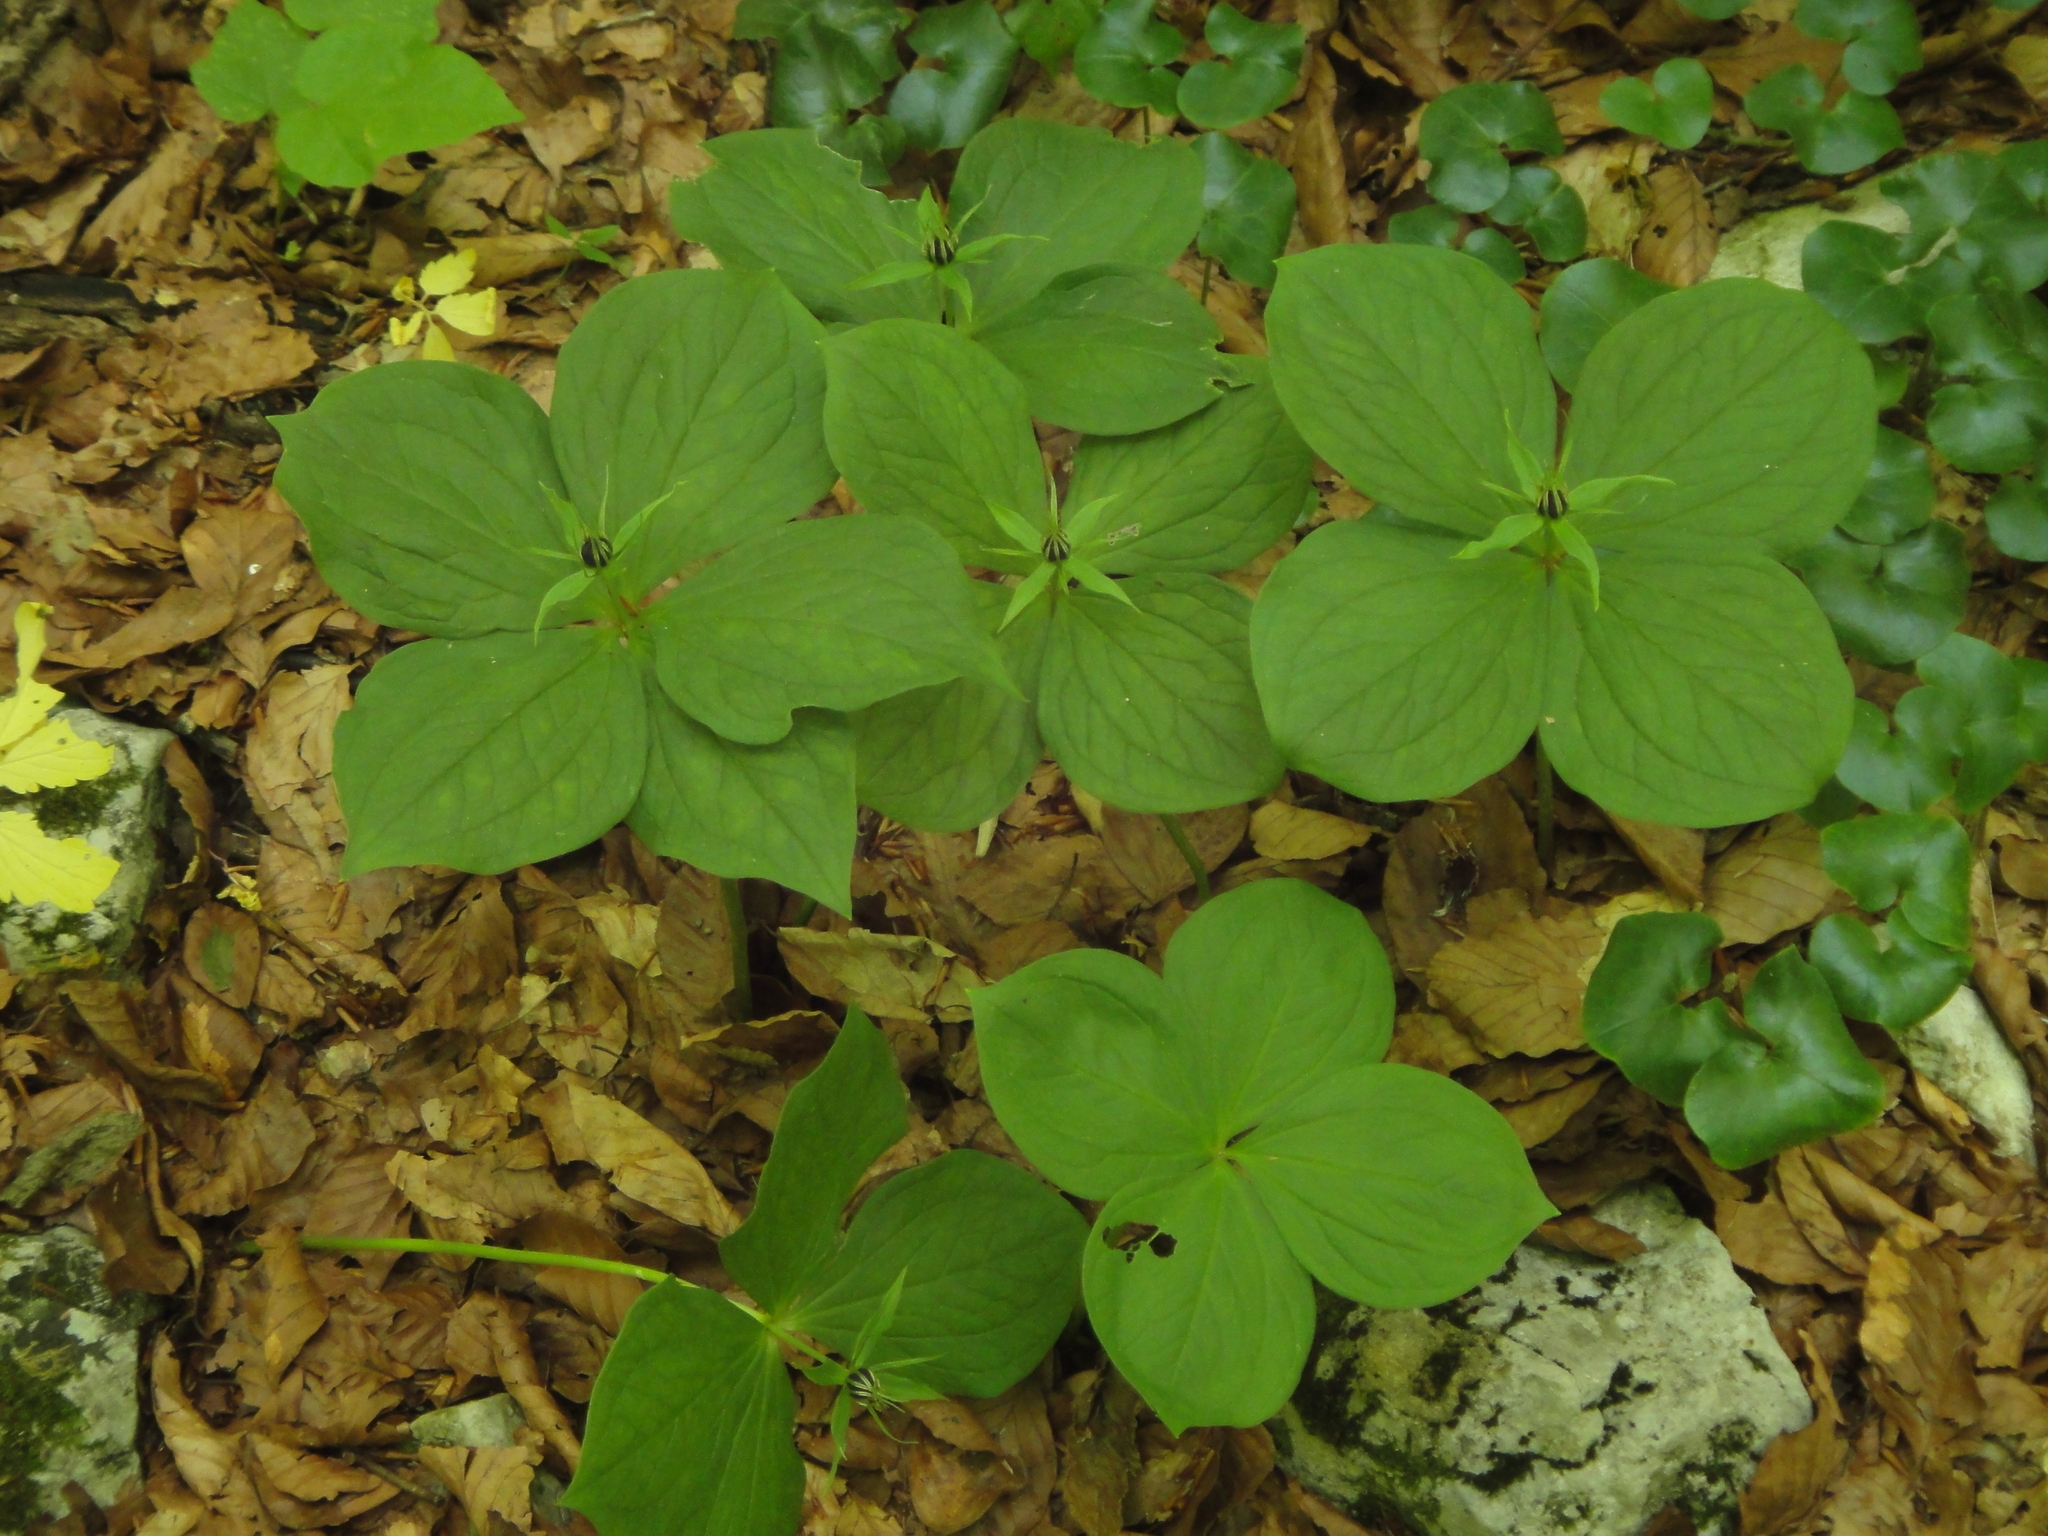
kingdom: Plantae
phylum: Tracheophyta
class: Liliopsida
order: Liliales
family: Melanthiaceae
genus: Paris
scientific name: Paris quadrifolia
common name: Herb-paris
